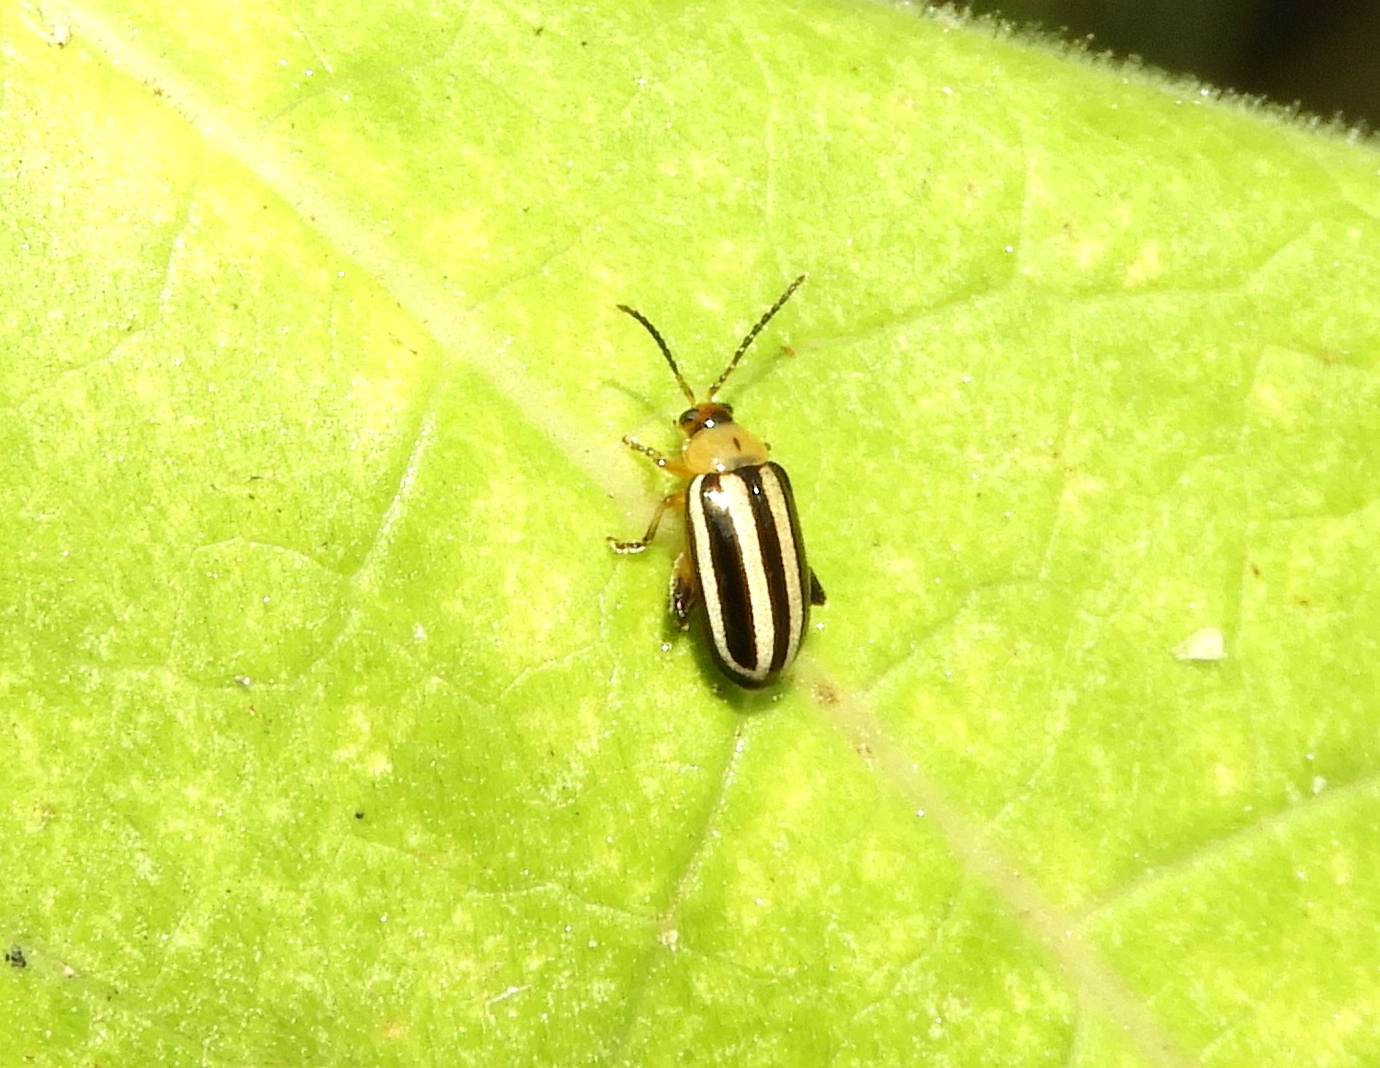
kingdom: Animalia
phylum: Arthropoda
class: Insecta
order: Coleoptera
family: Chrysomelidae
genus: Disonycha
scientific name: Disonycha glabrata
